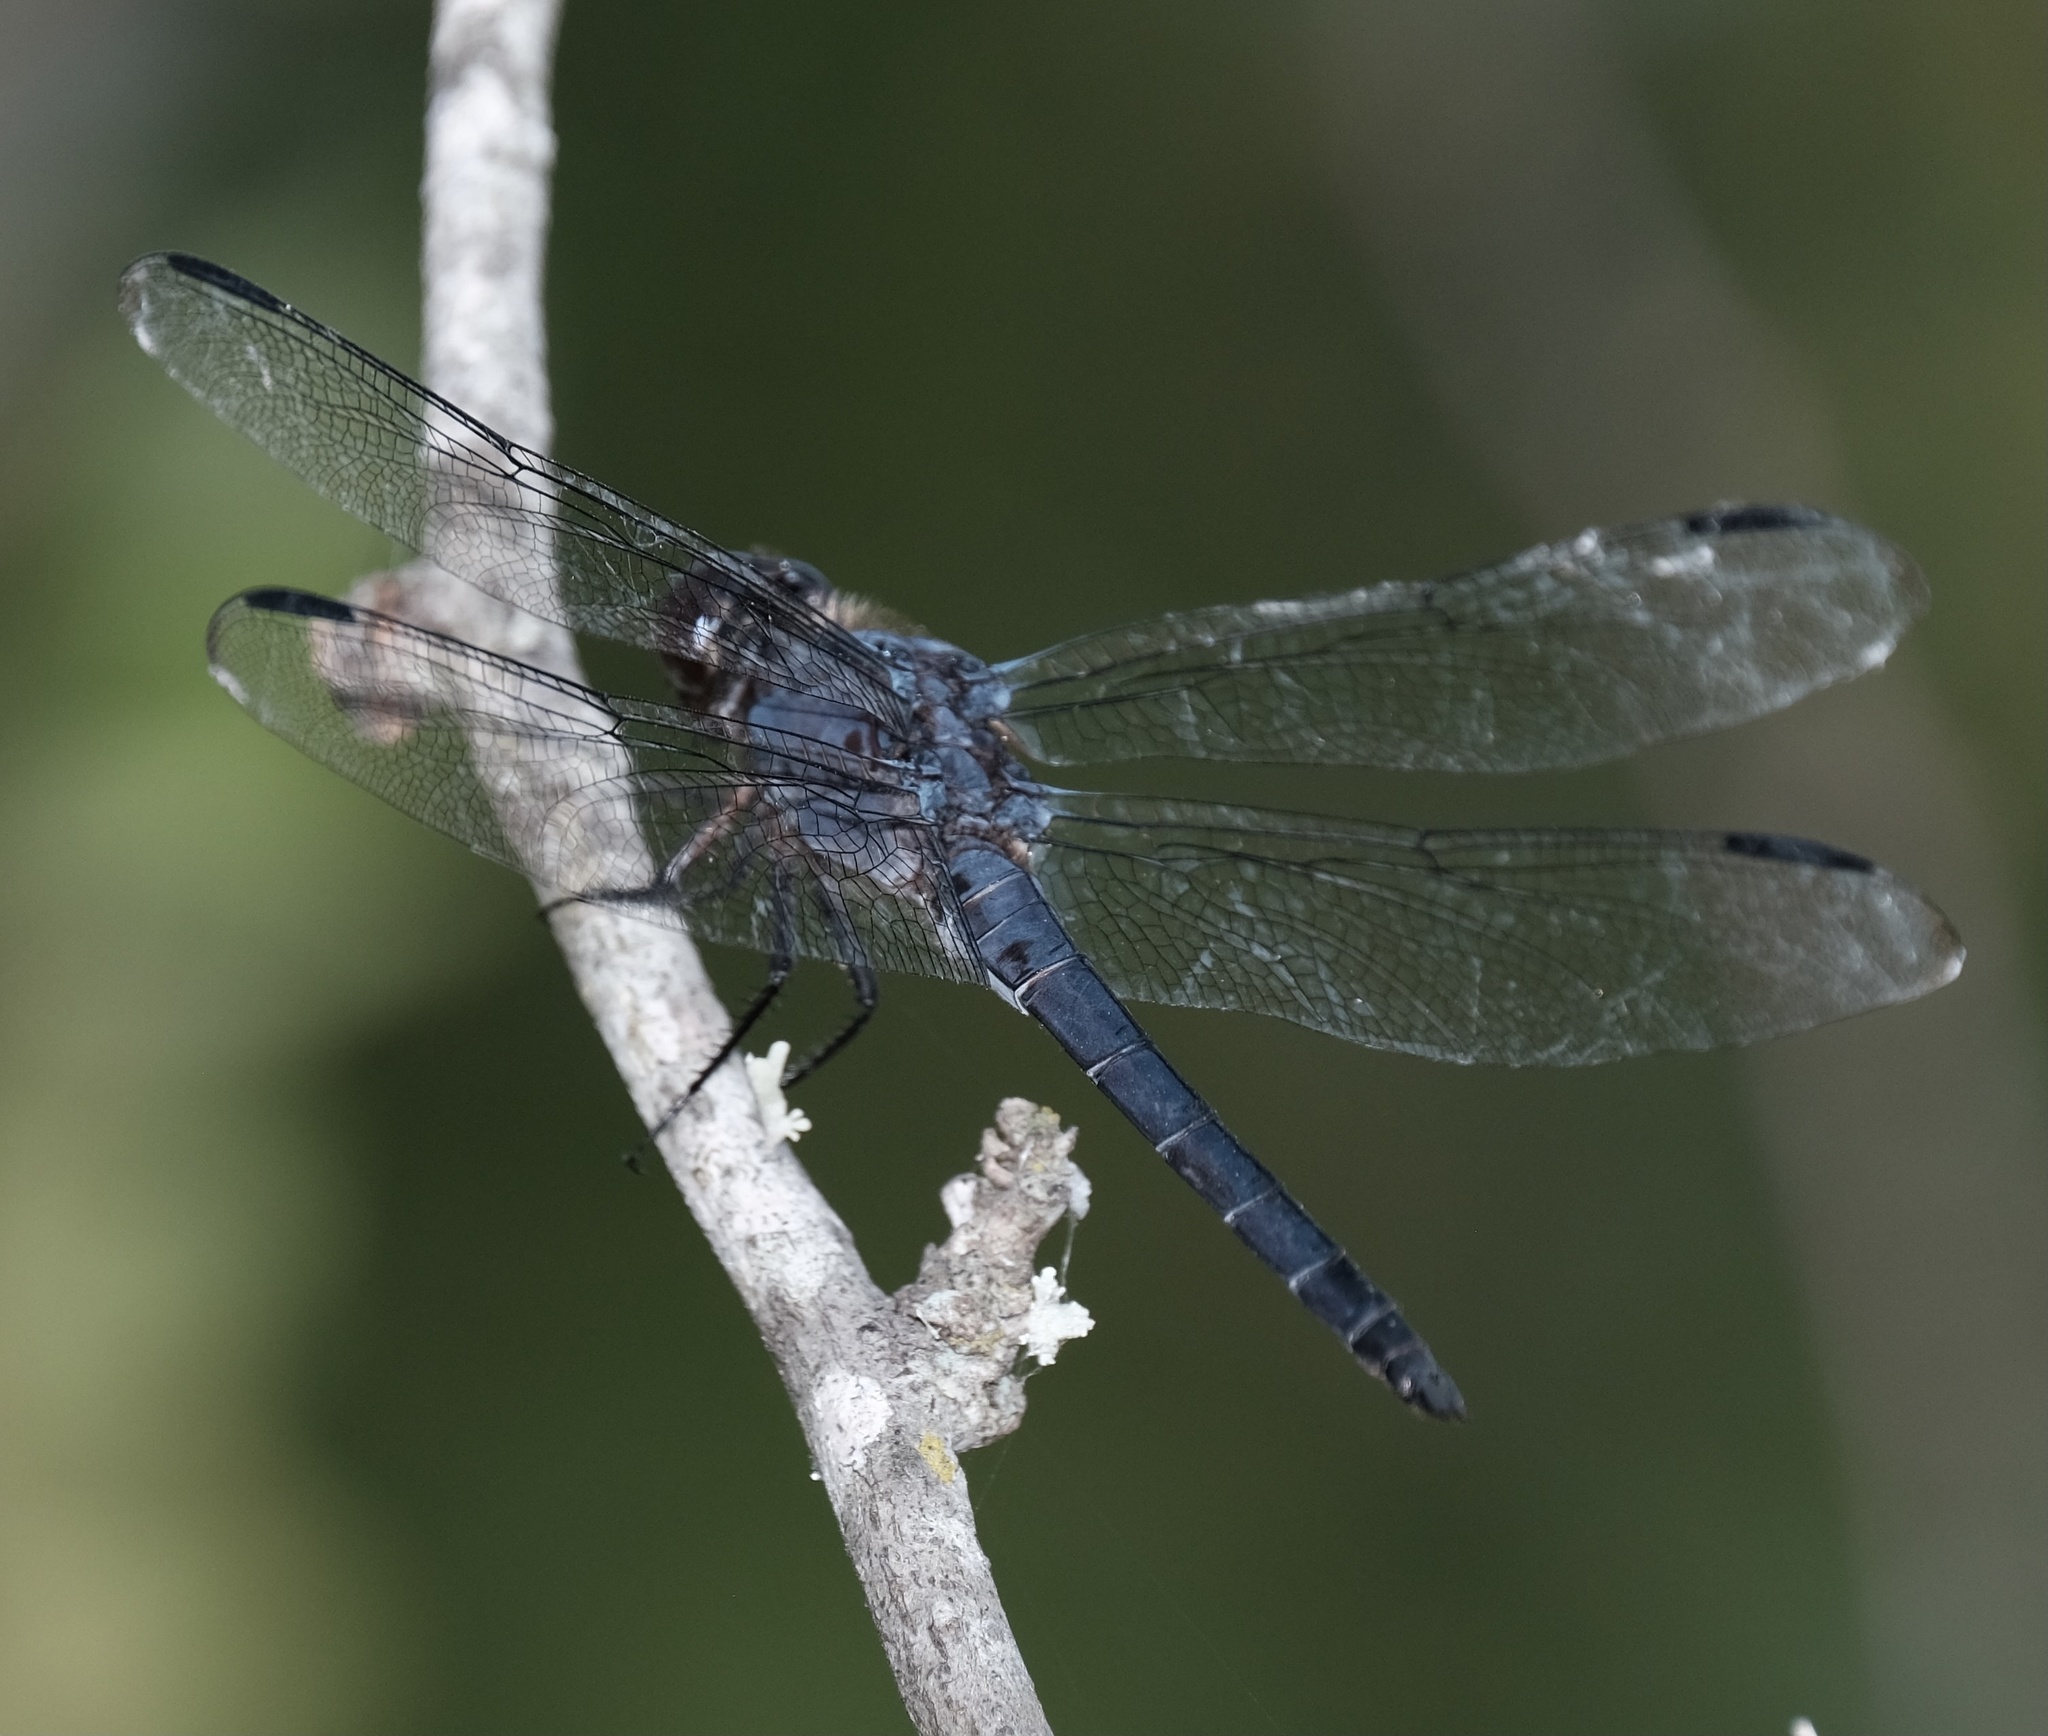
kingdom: Animalia
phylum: Arthropoda
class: Insecta
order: Odonata
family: Libellulidae
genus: Libellula
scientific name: Libellula incesta
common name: Slaty skimmer
